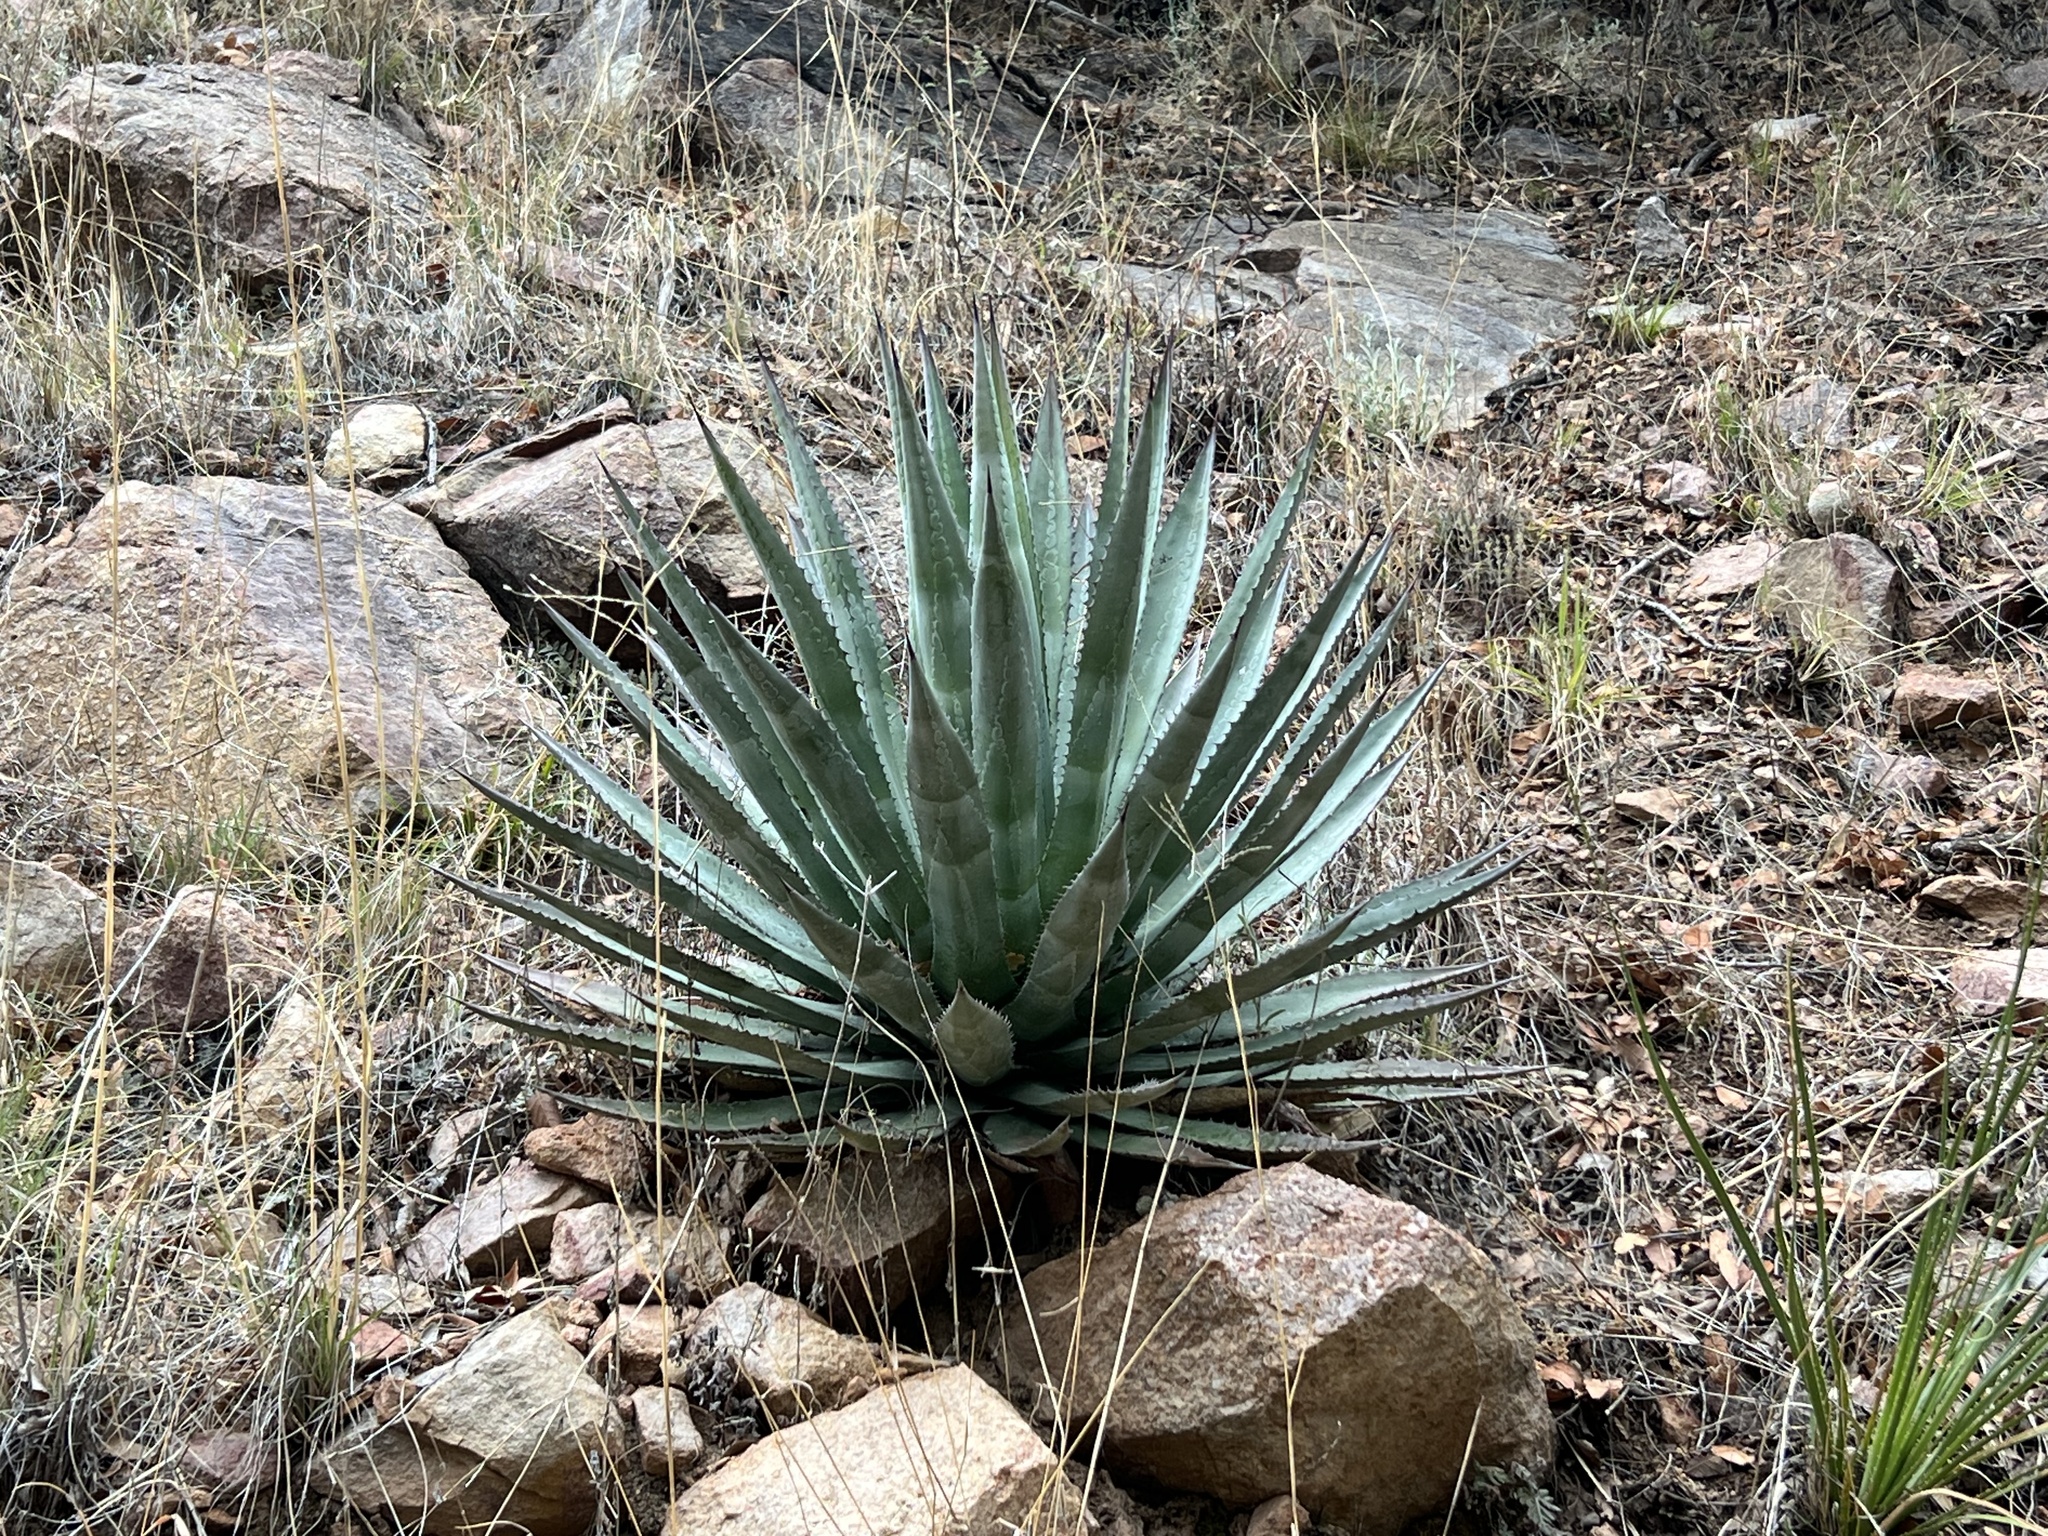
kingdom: Plantae
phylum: Tracheophyta
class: Liliopsida
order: Asparagales
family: Asparagaceae
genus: Agave
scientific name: Agave palmeri
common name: Palmer agave
